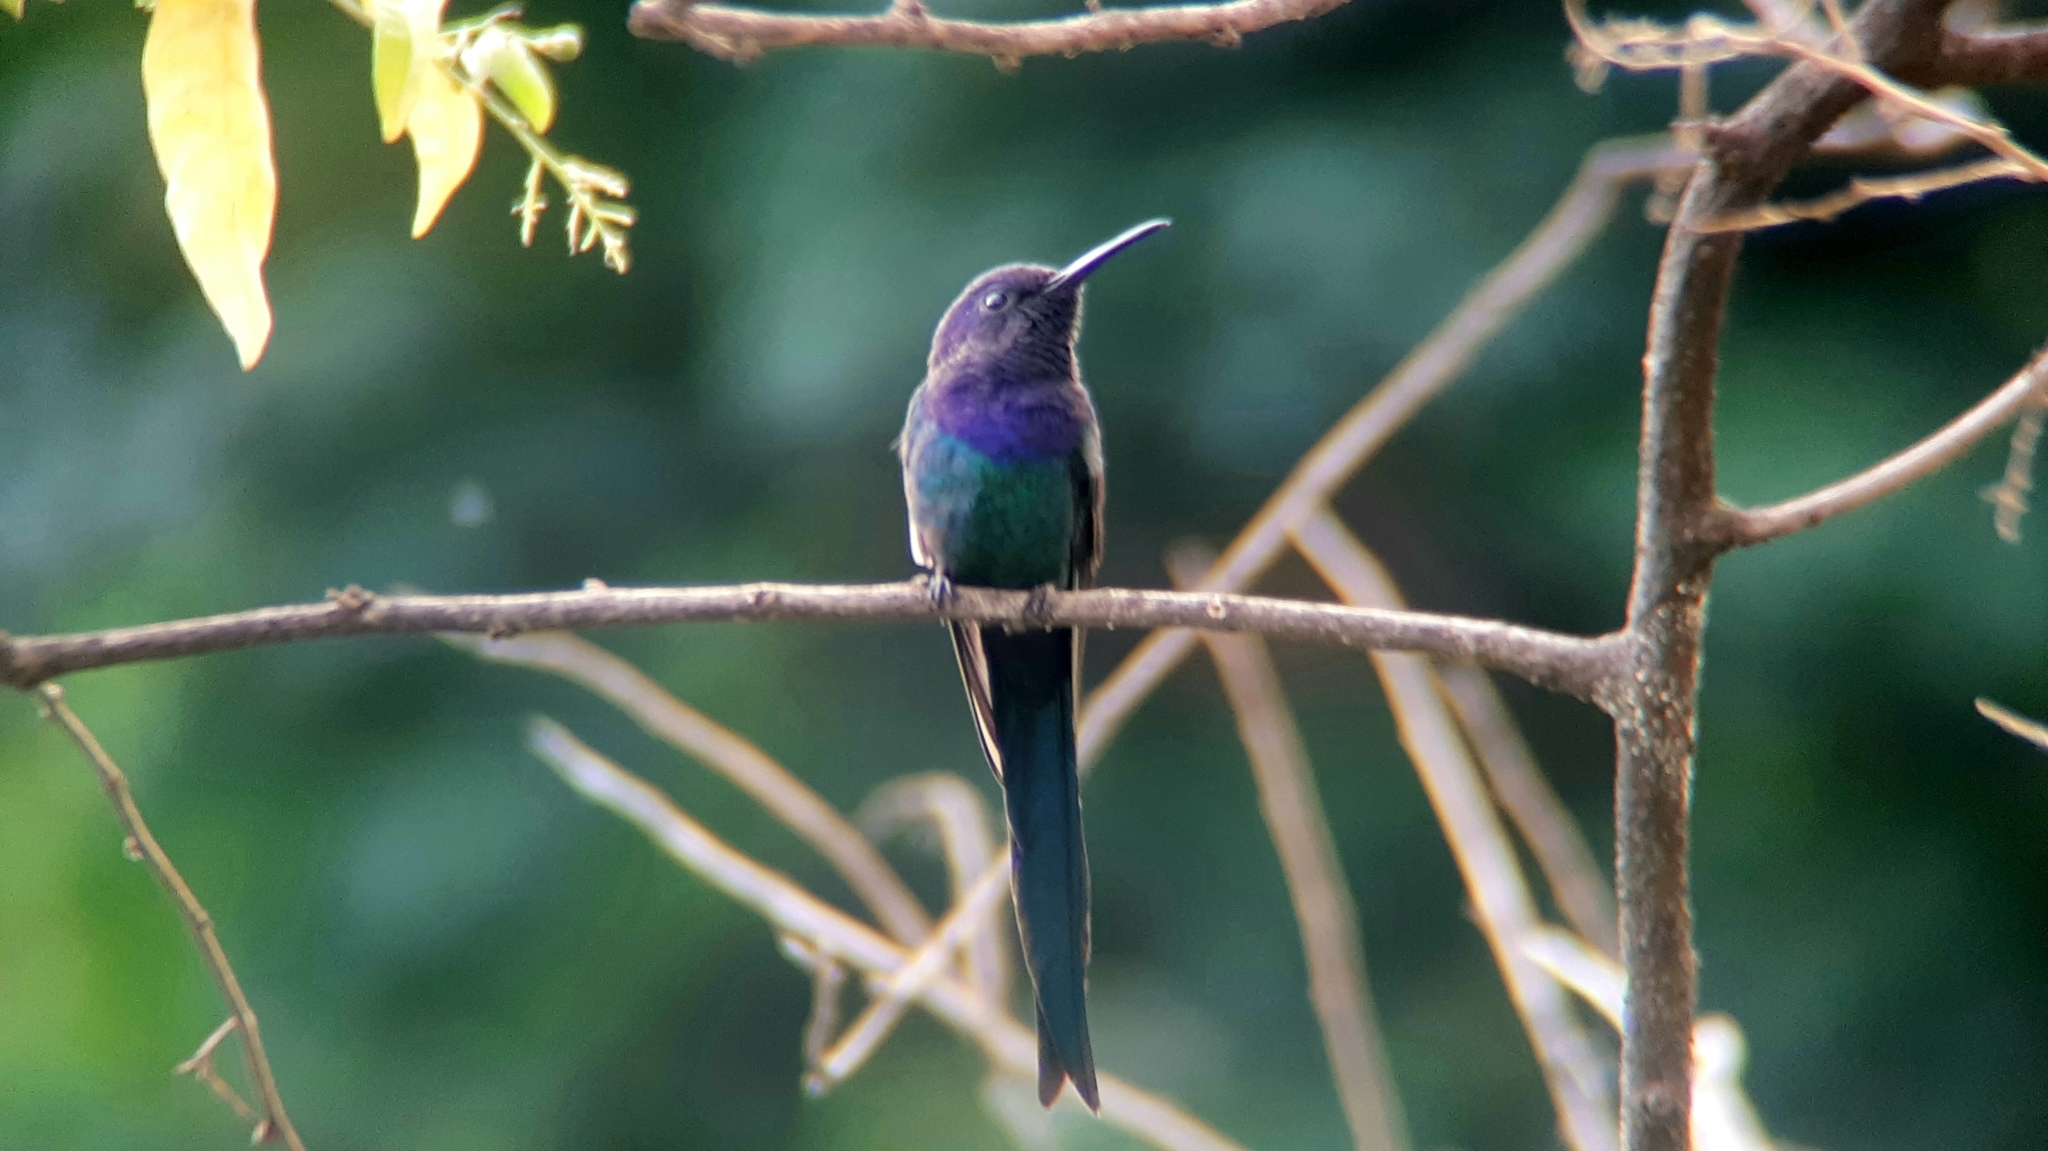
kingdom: Animalia
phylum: Chordata
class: Aves
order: Apodiformes
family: Trochilidae
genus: Eupetomena
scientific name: Eupetomena macroura
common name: Swallow-tailed hummingbird
